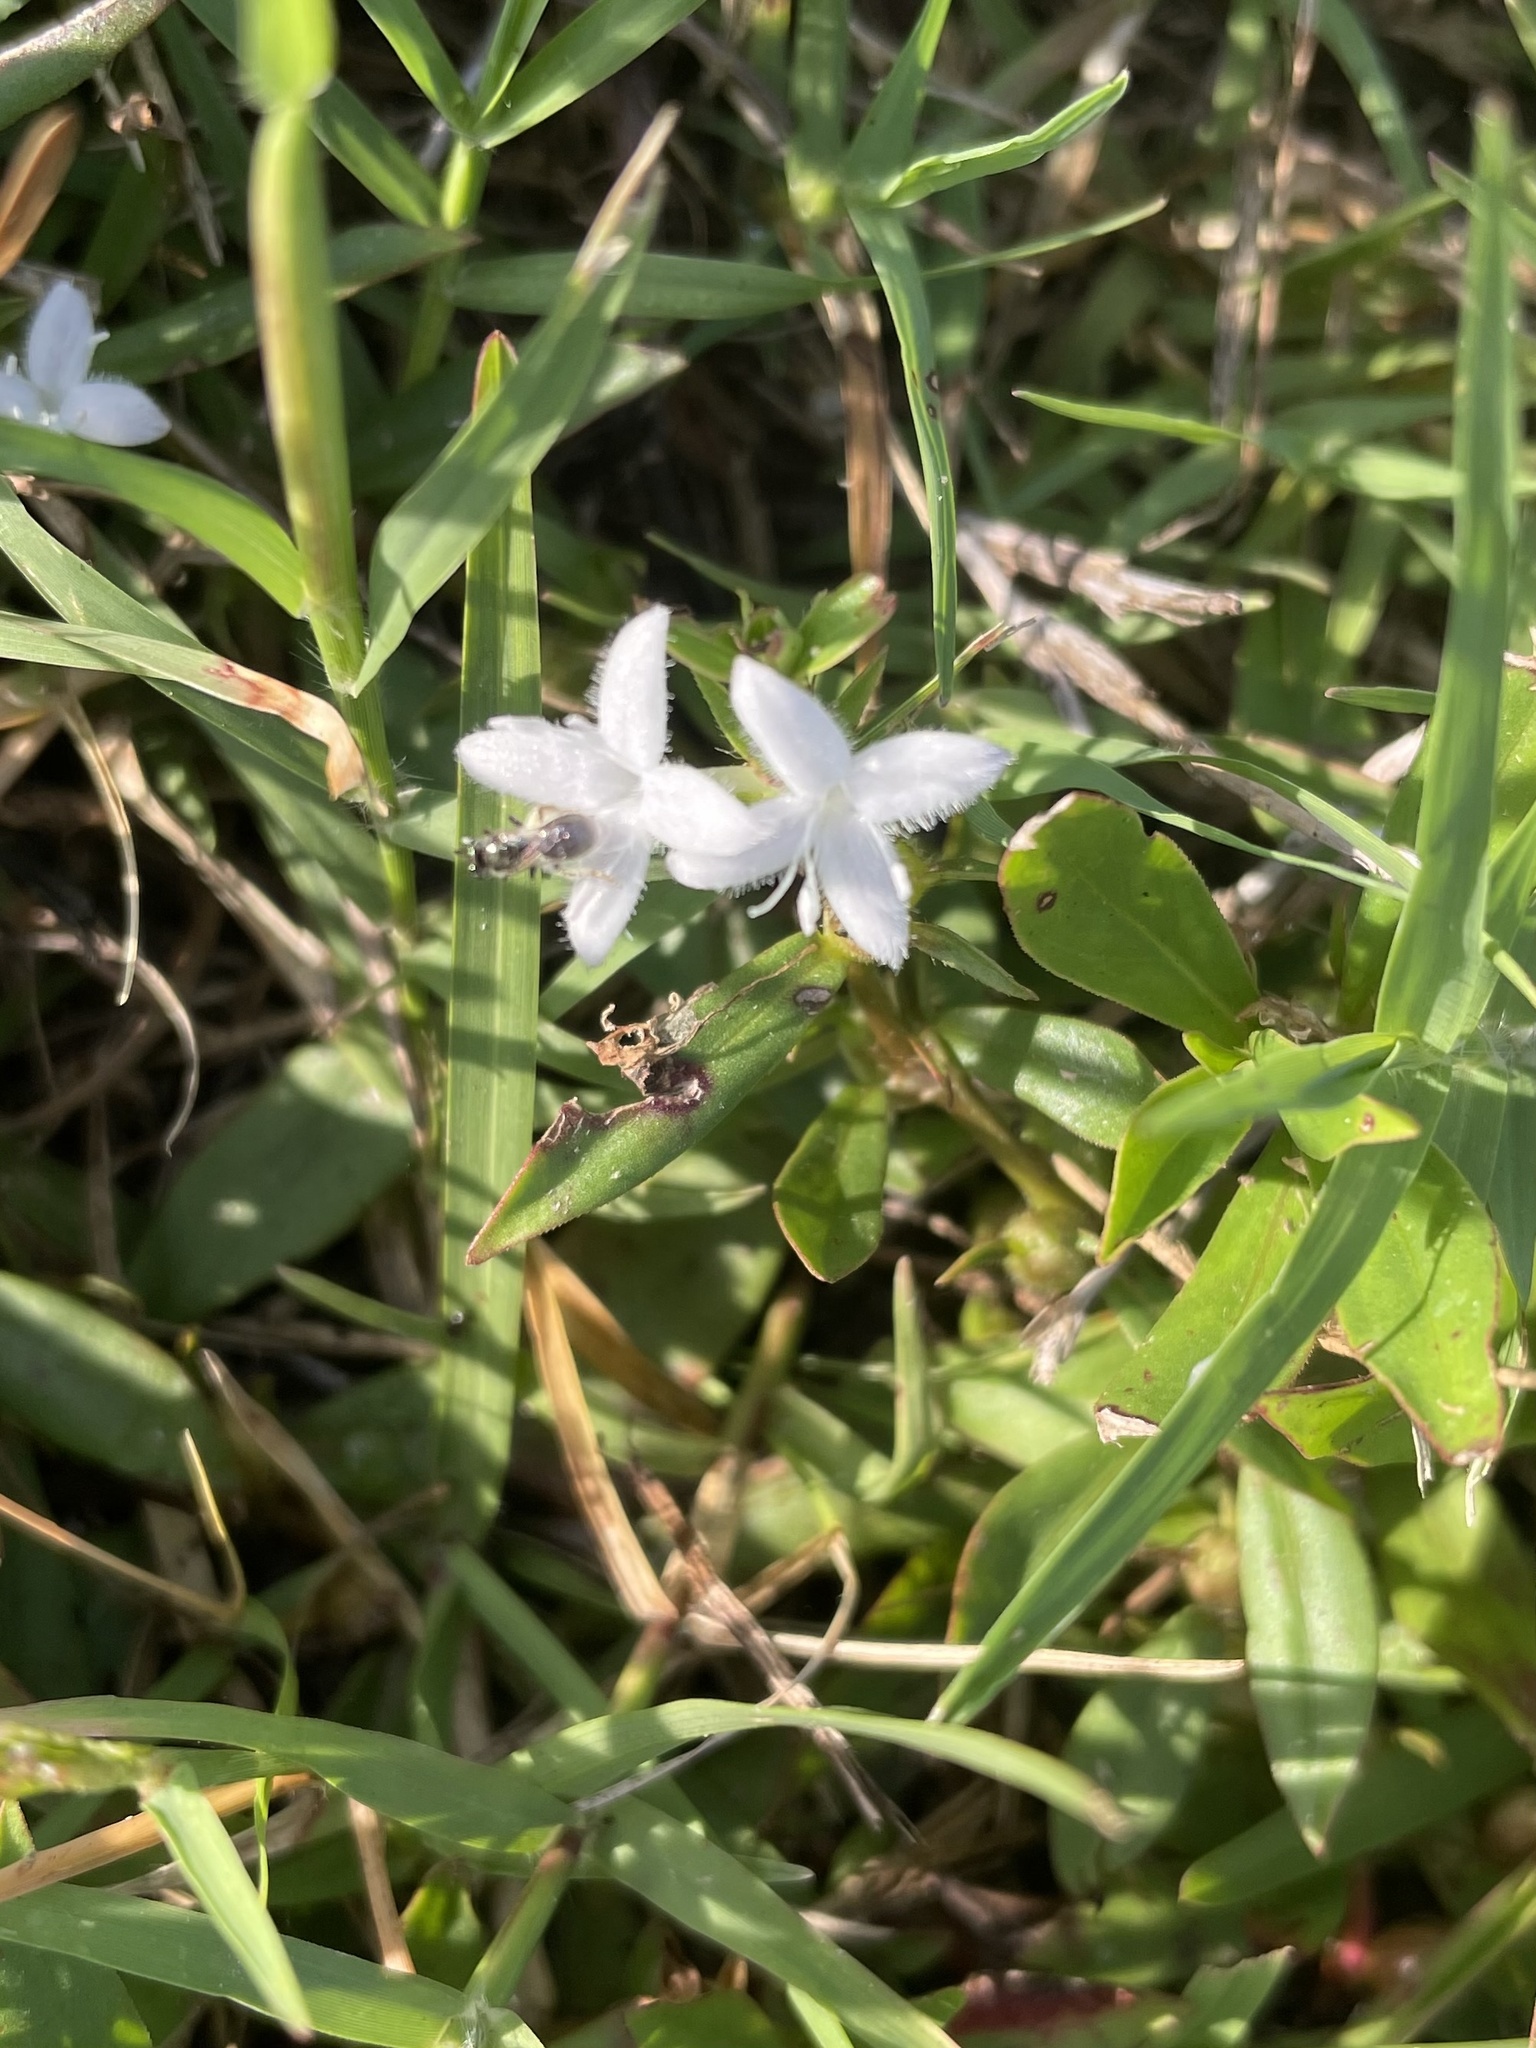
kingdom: Plantae
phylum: Tracheophyta
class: Magnoliopsida
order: Gentianales
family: Rubiaceae
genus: Diodia
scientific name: Diodia virginiana
